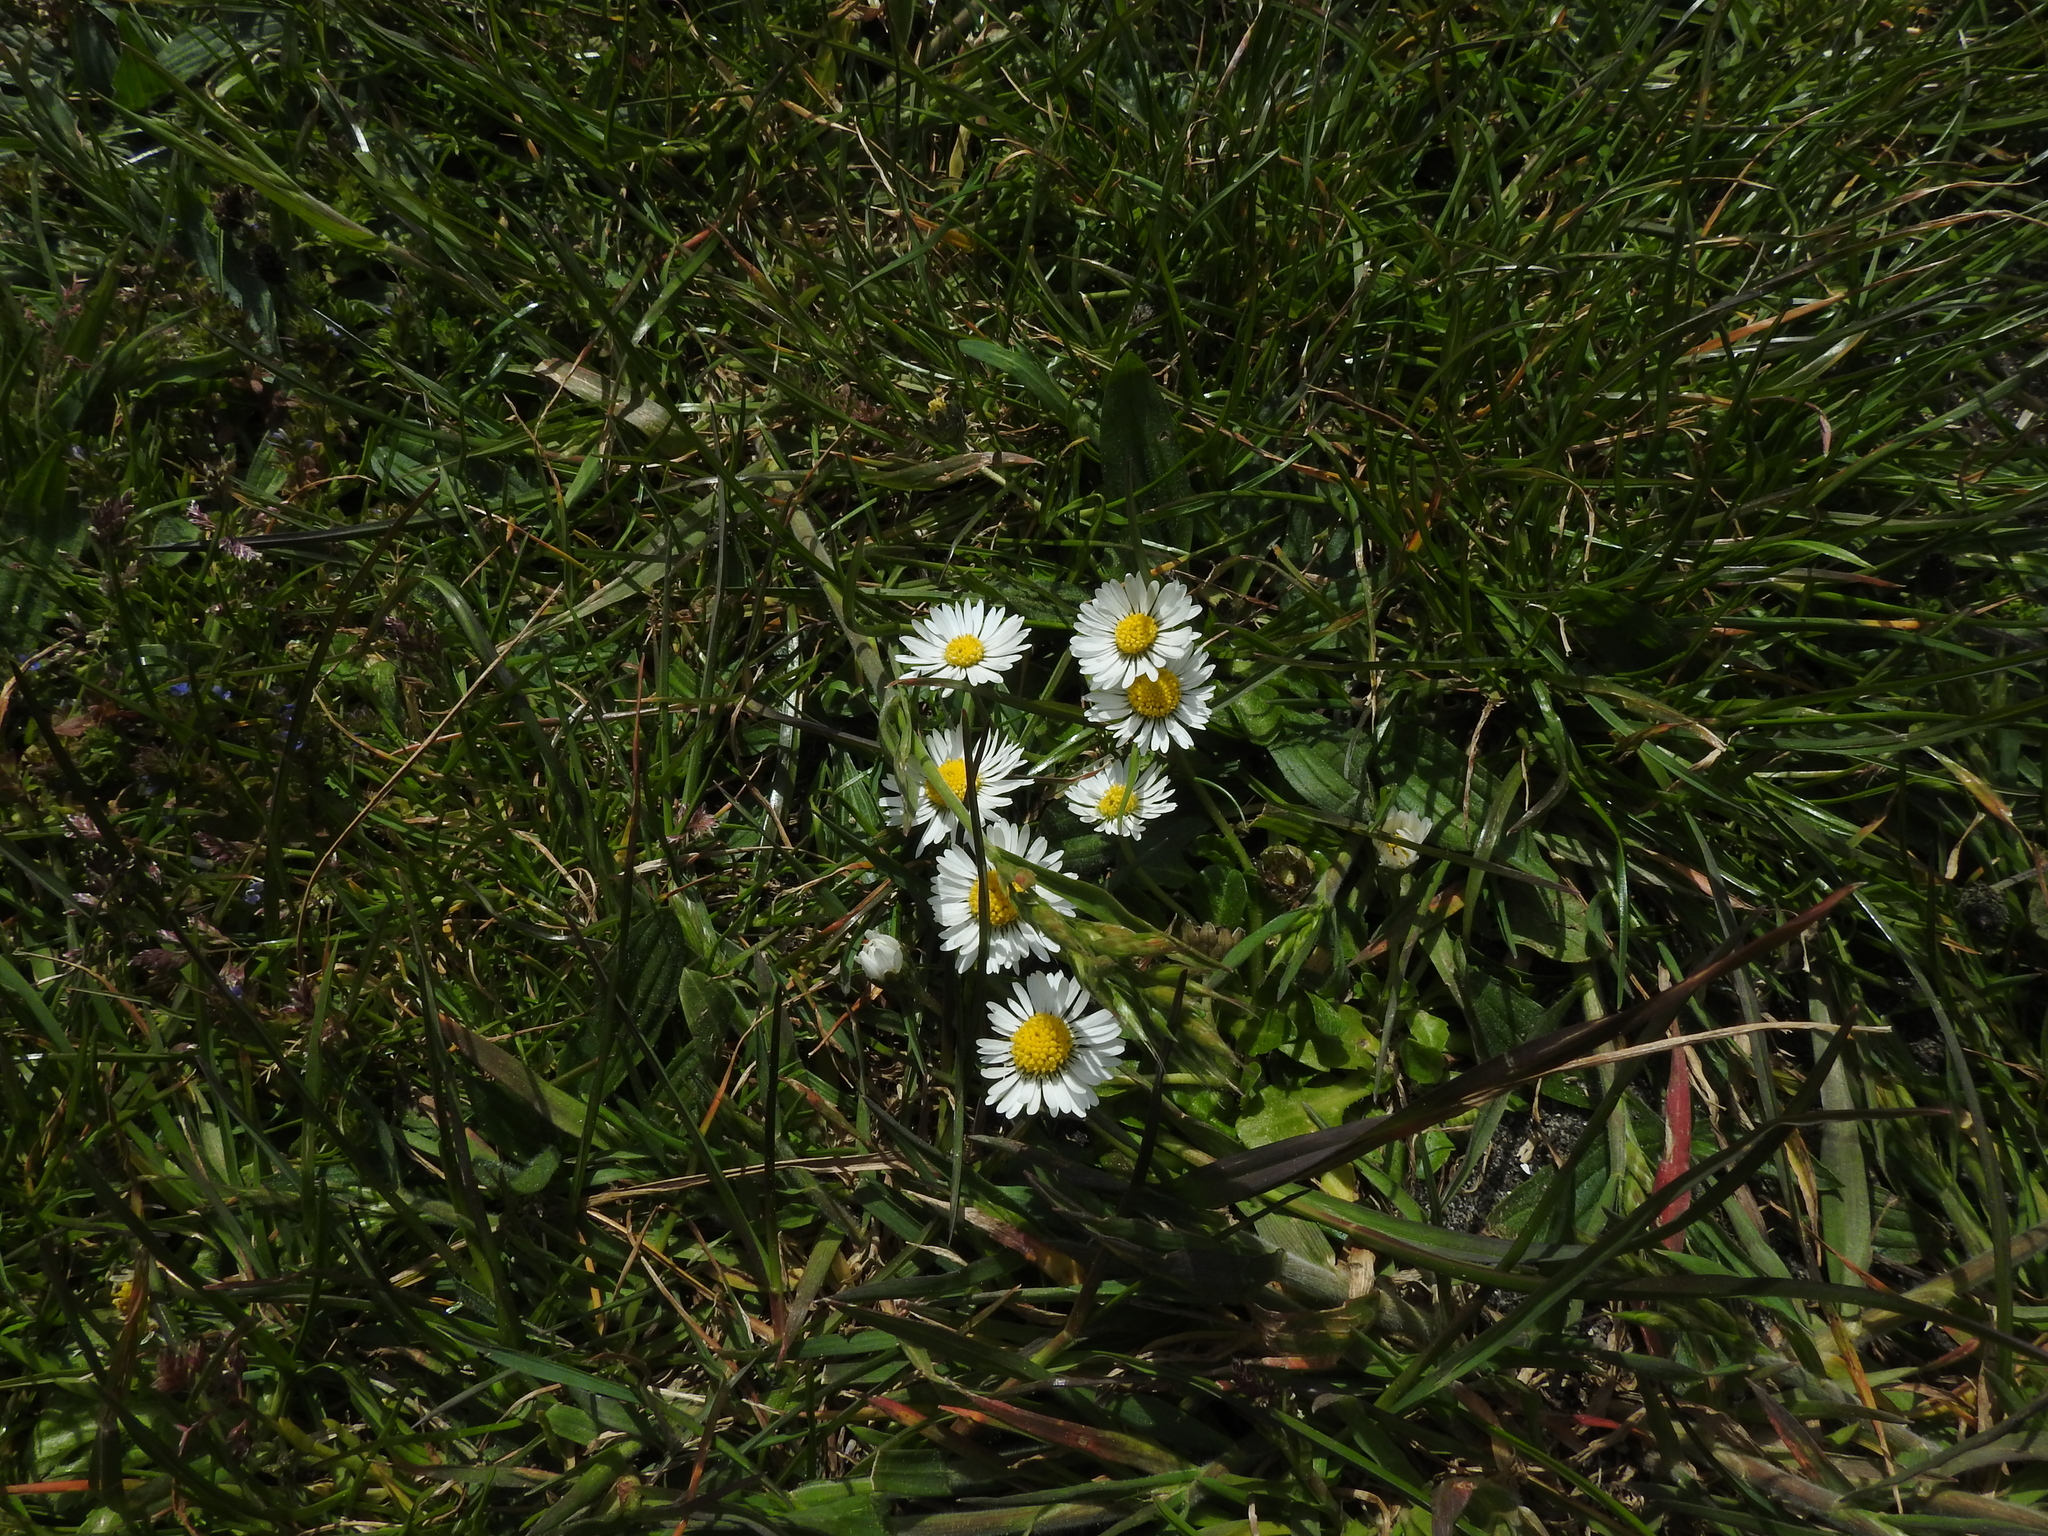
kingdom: Plantae
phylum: Tracheophyta
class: Magnoliopsida
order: Asterales
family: Asteraceae
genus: Bellis
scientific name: Bellis perennis
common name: Lawndaisy
